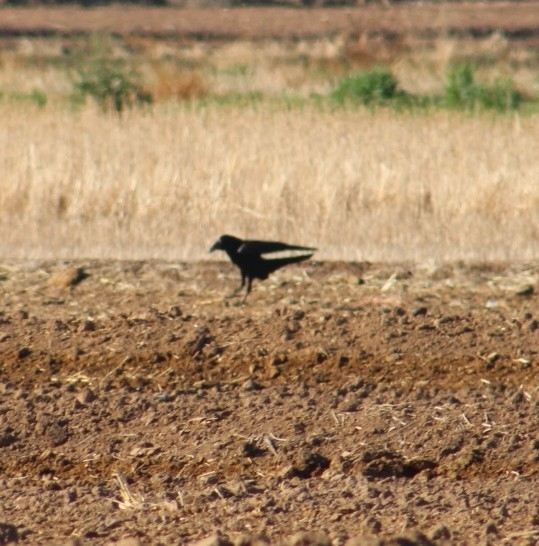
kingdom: Animalia
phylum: Chordata
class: Aves
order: Passeriformes
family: Corvidae
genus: Corvus
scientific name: Corvus corax
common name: Common raven
